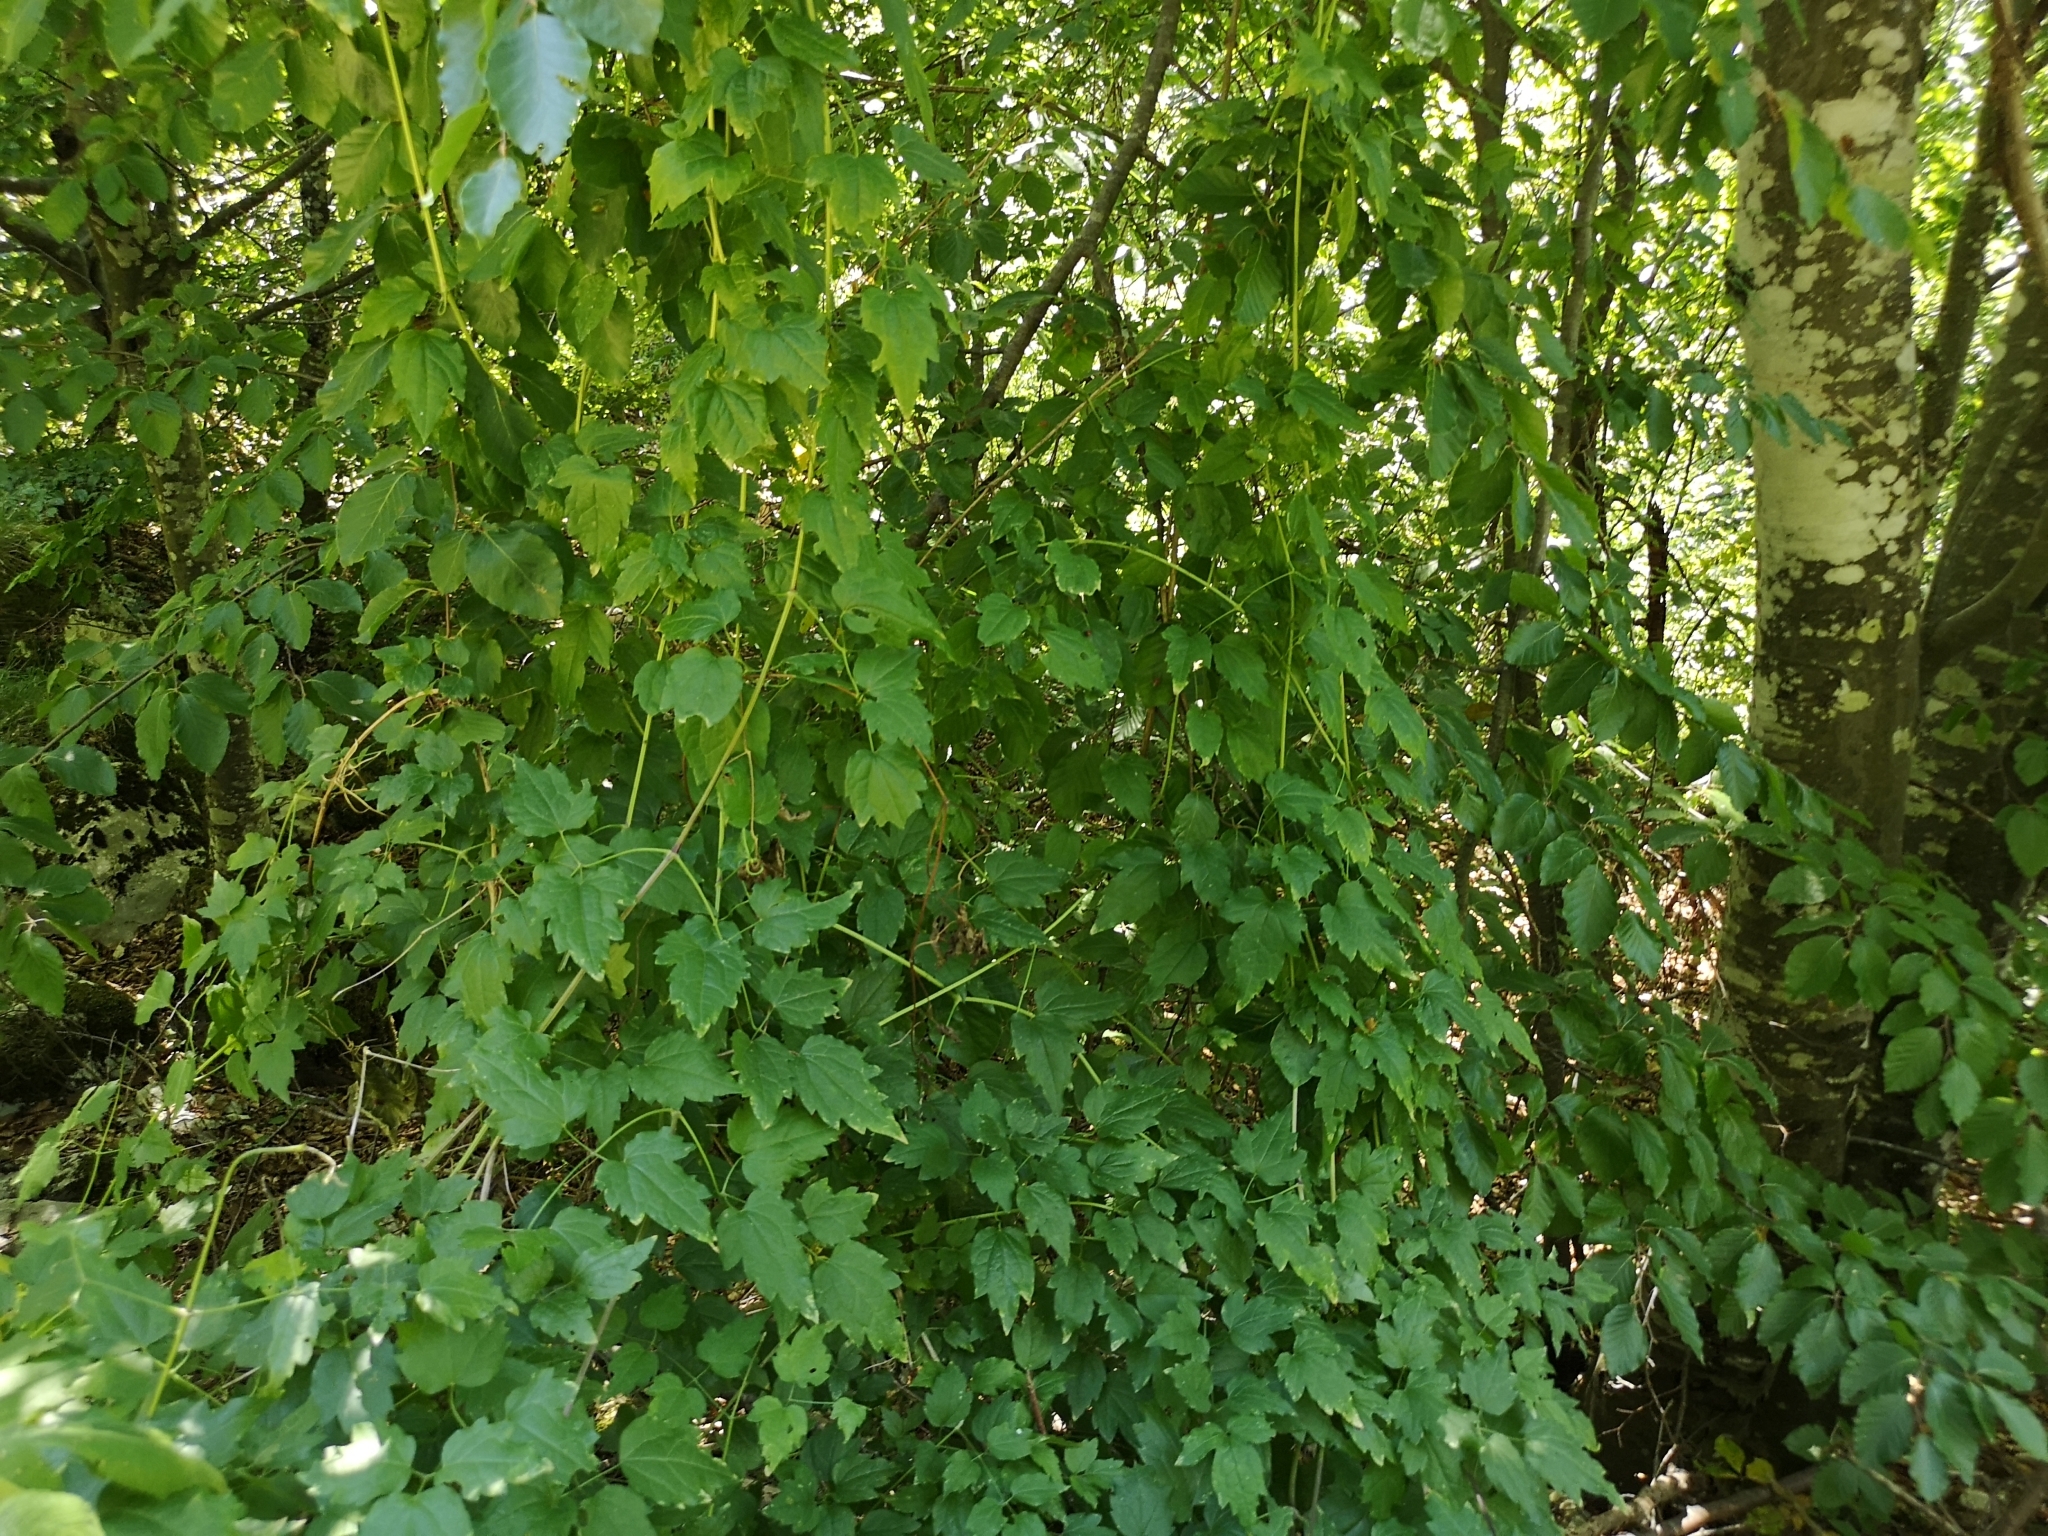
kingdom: Plantae
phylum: Tracheophyta
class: Magnoliopsida
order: Ranunculales
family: Ranunculaceae
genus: Clematis
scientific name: Clematis vitalba
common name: Evergreen clematis
